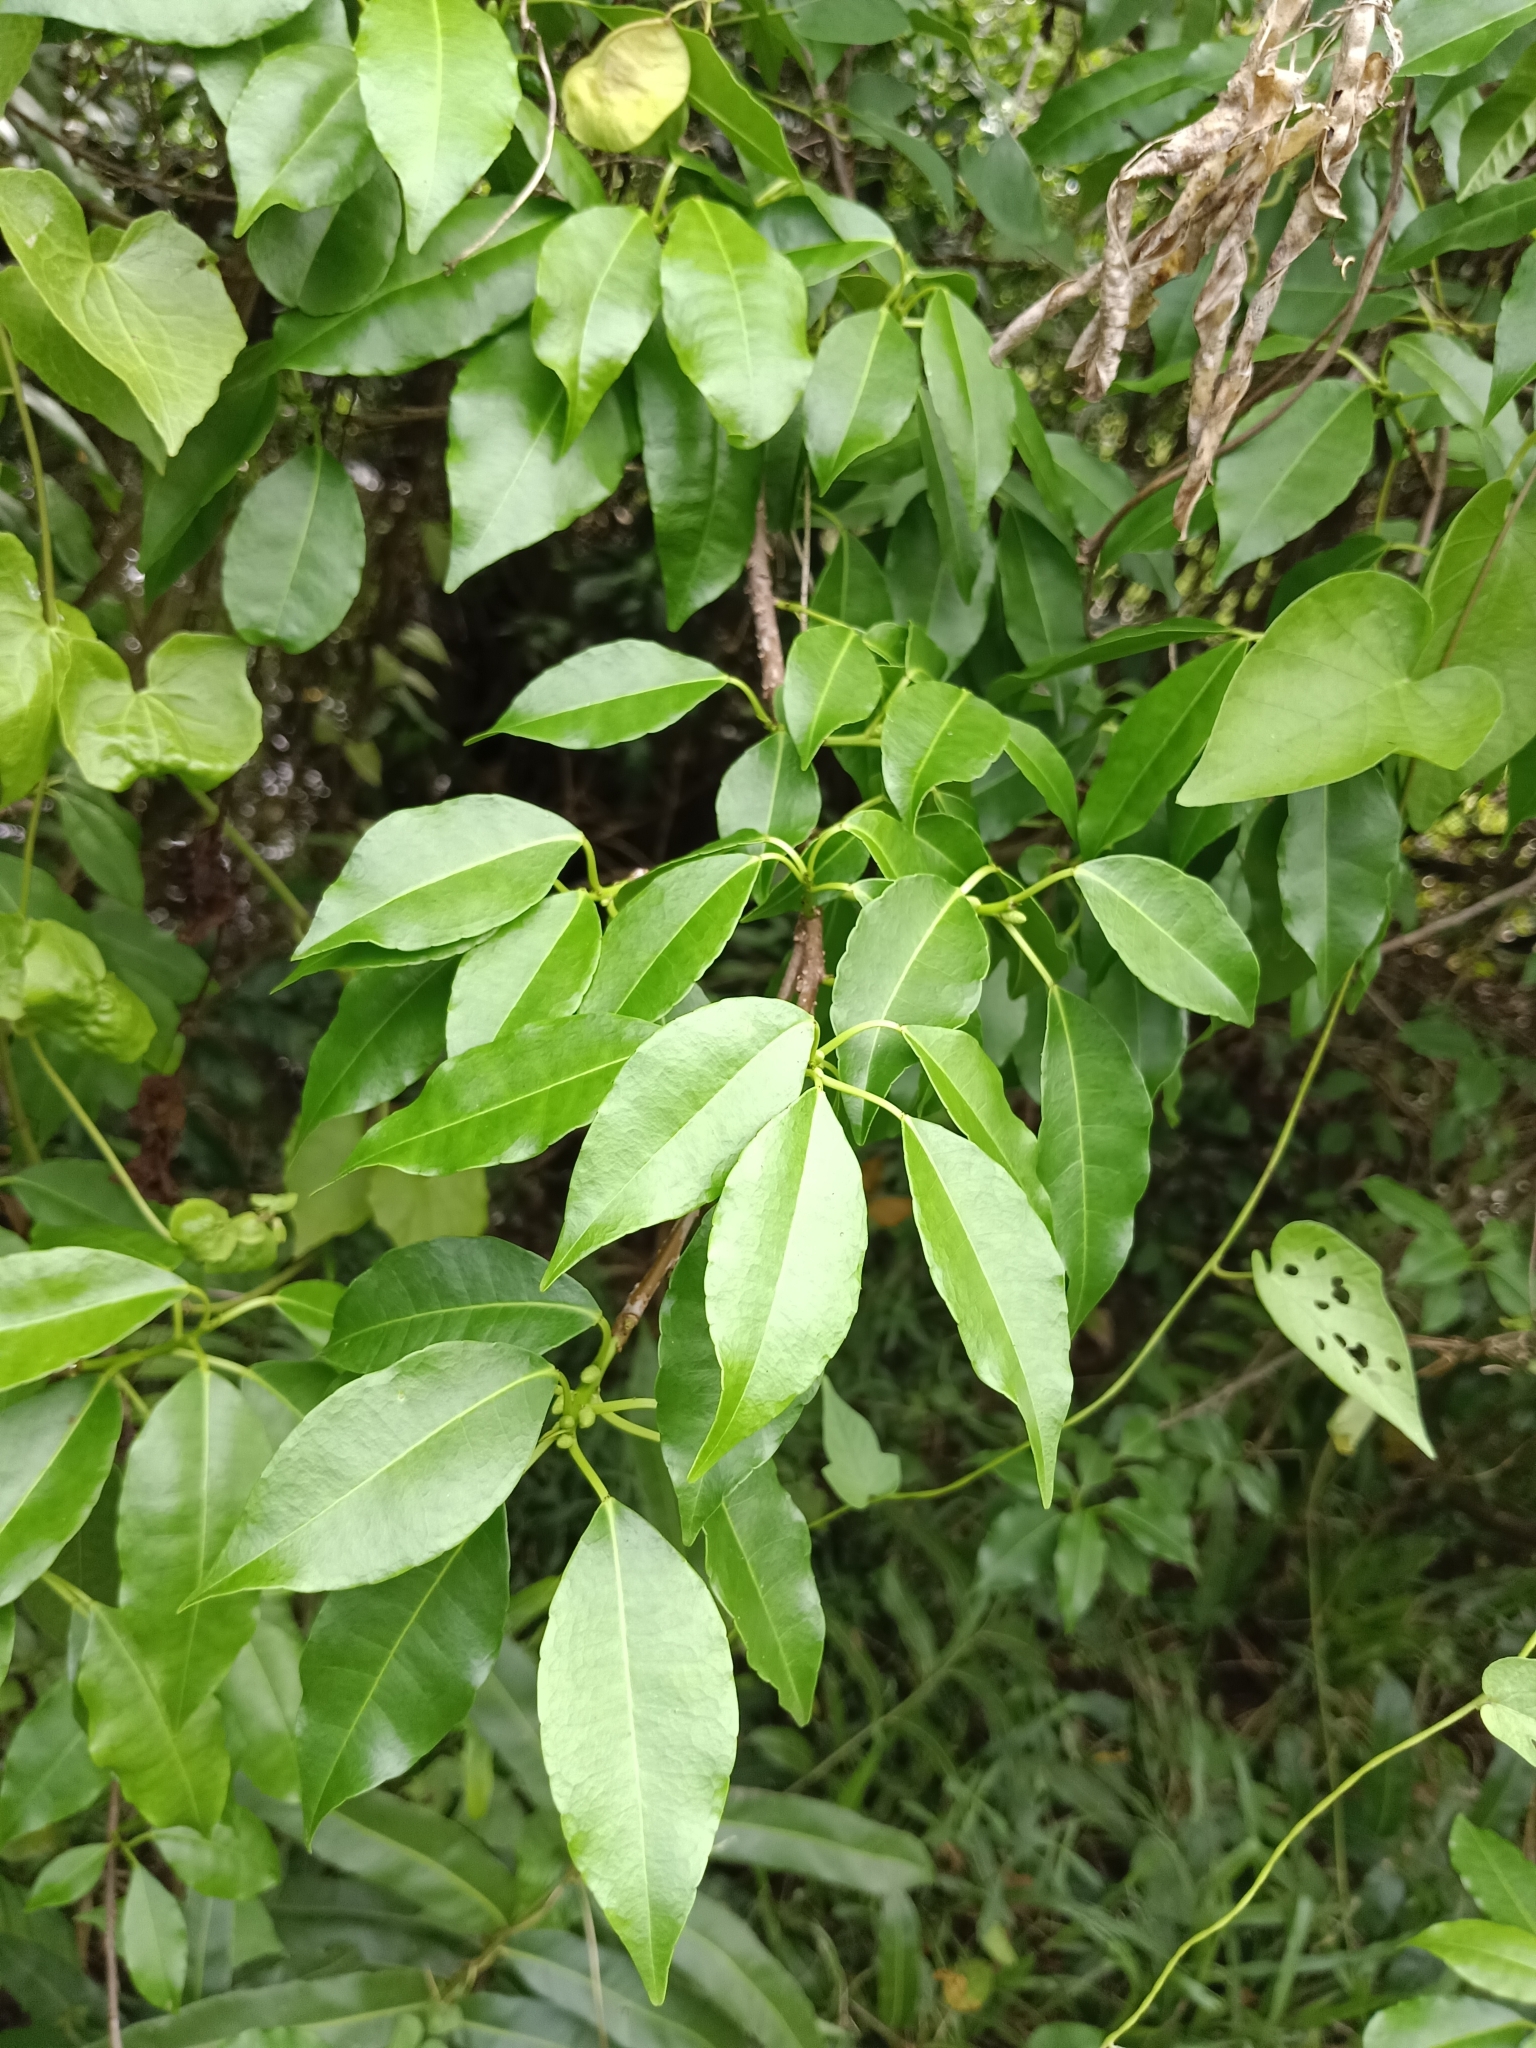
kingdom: Plantae
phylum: Tracheophyta
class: Magnoliopsida
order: Malpighiales
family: Euphorbiaceae
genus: Excoecaria
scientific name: Excoecaria agallocha
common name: River poisontree
